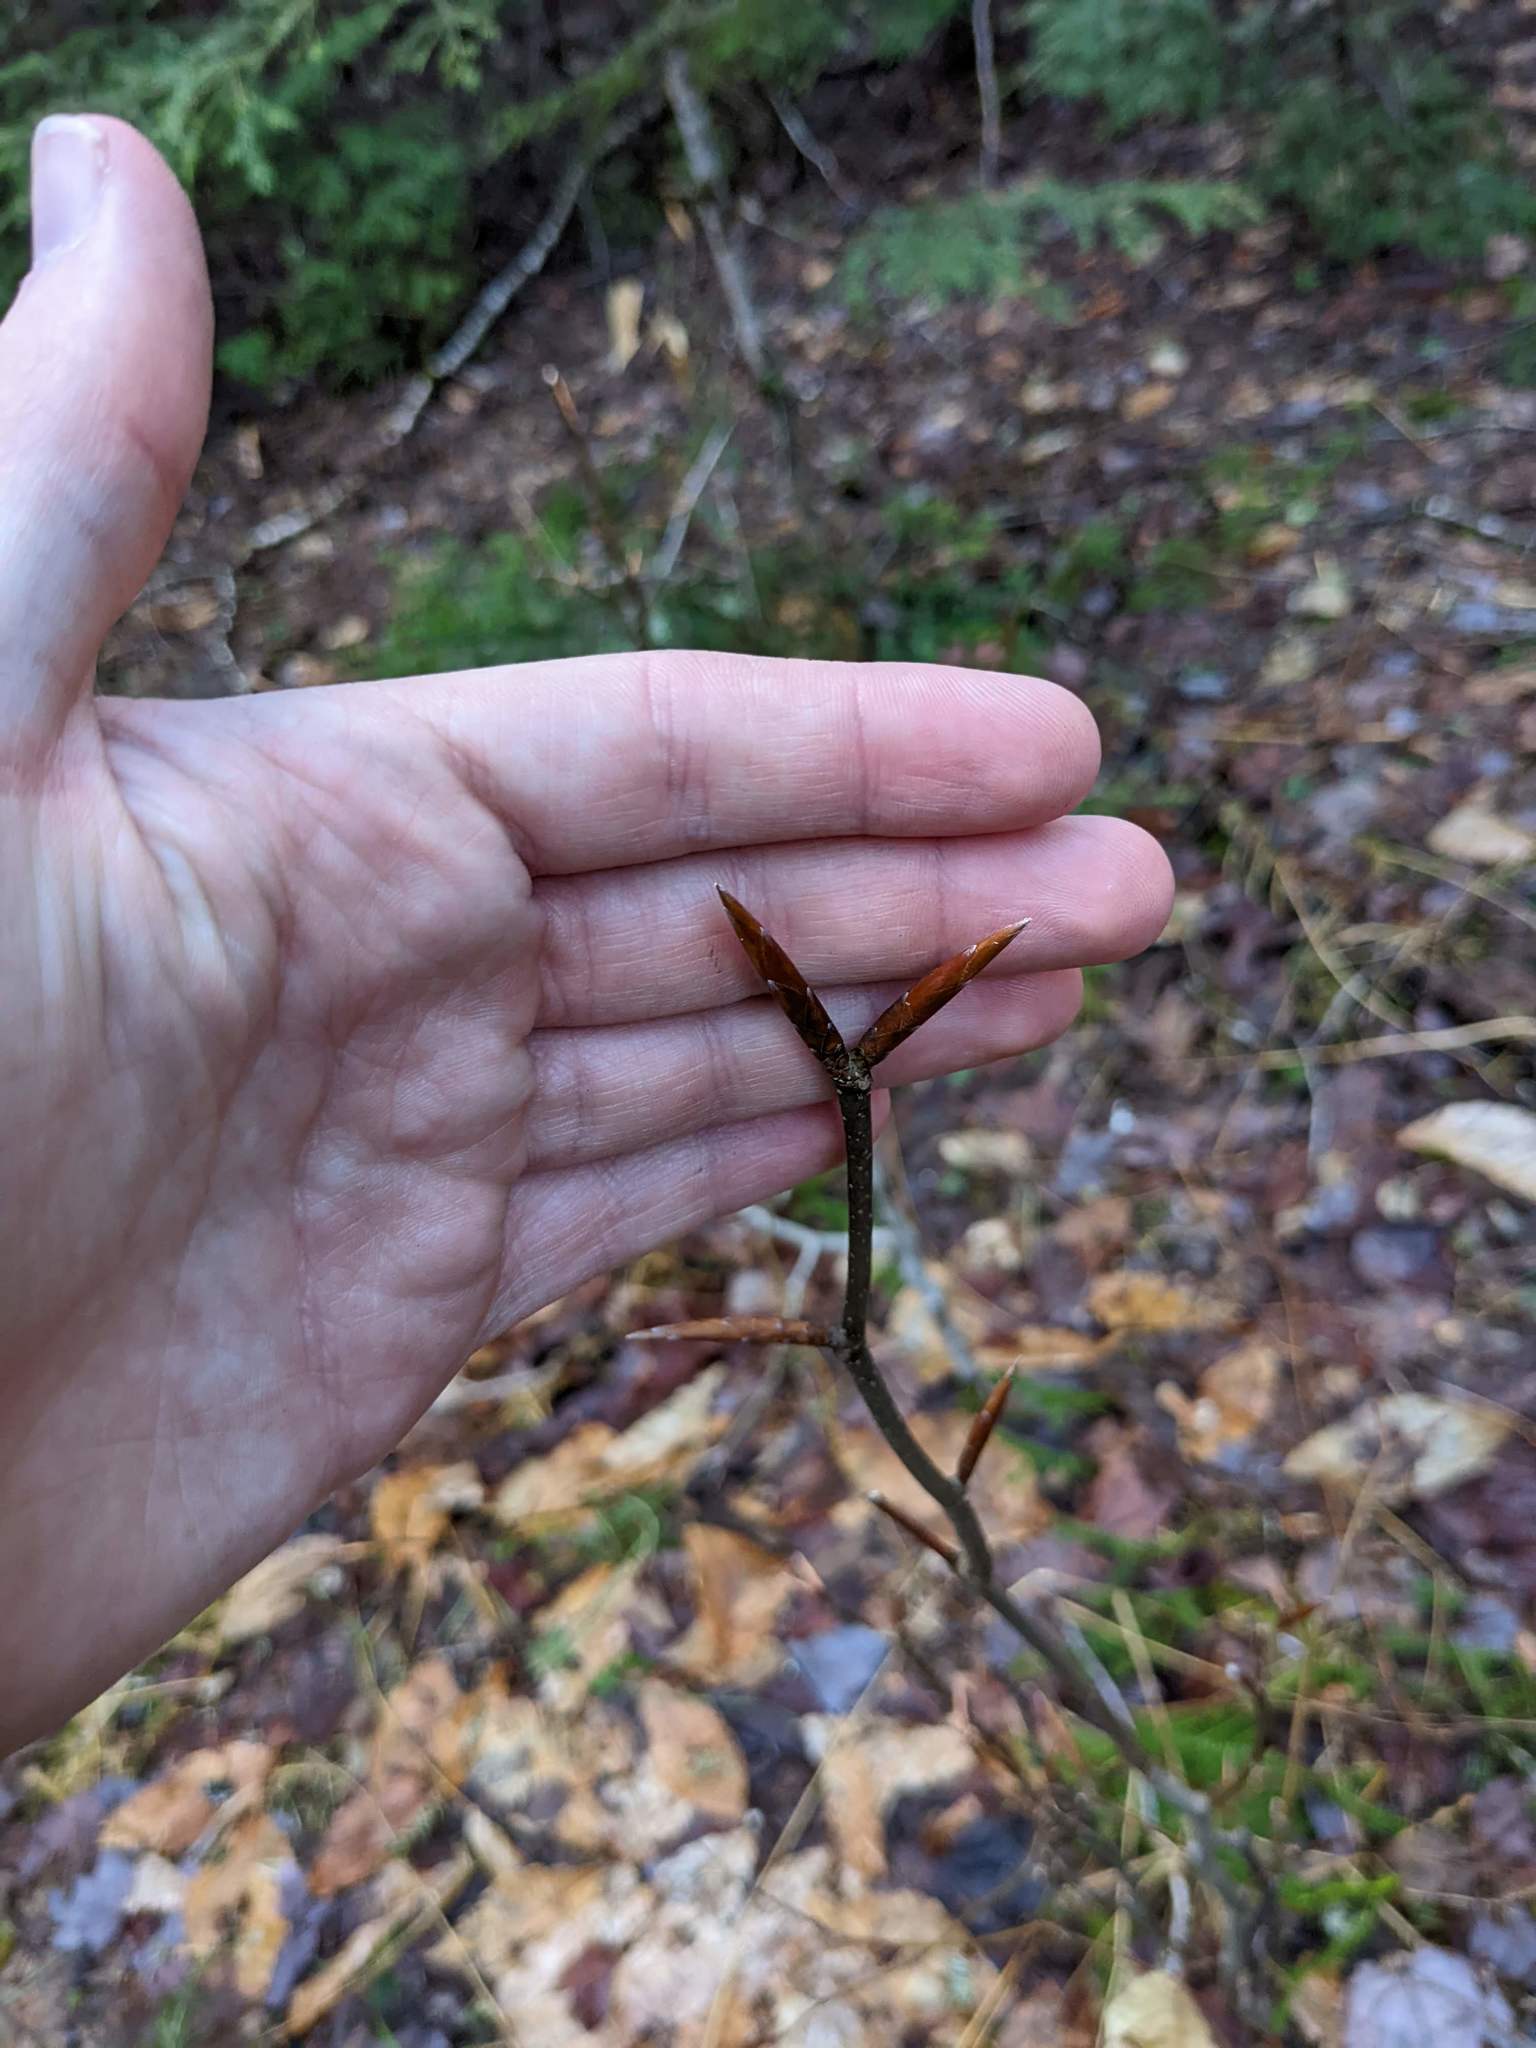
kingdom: Plantae
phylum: Tracheophyta
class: Magnoliopsida
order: Fagales
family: Fagaceae
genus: Fagus
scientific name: Fagus grandifolia
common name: American beech
